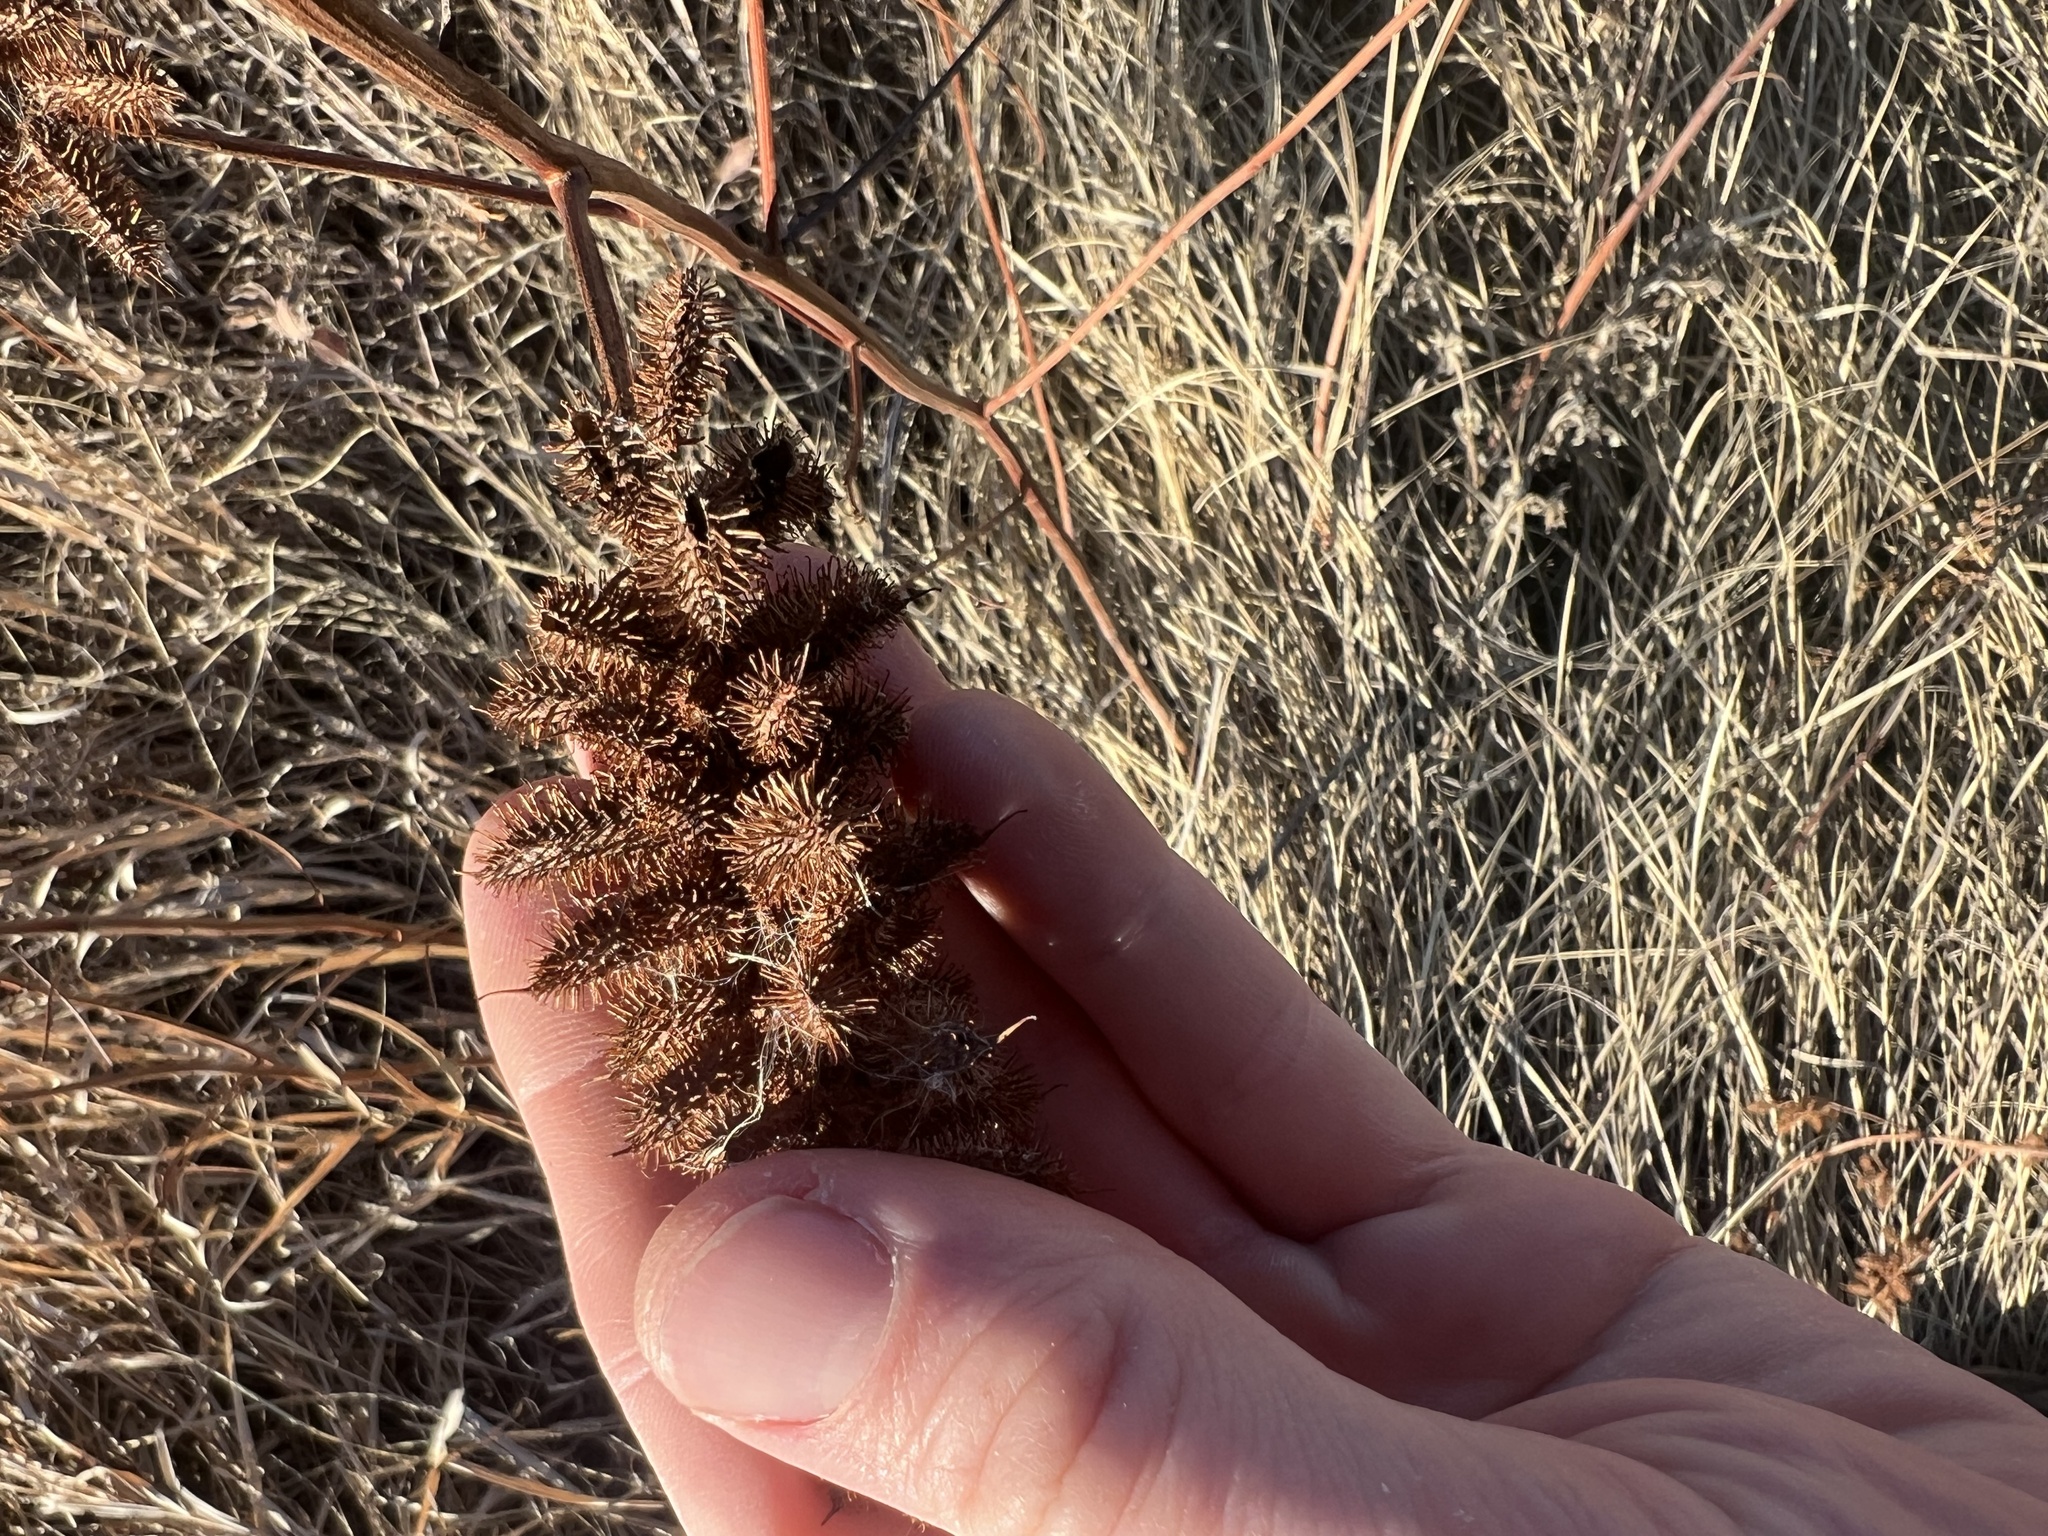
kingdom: Plantae
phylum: Tracheophyta
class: Magnoliopsida
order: Fabales
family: Fabaceae
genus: Glycyrrhiza
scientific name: Glycyrrhiza lepidota
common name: American liquorice
